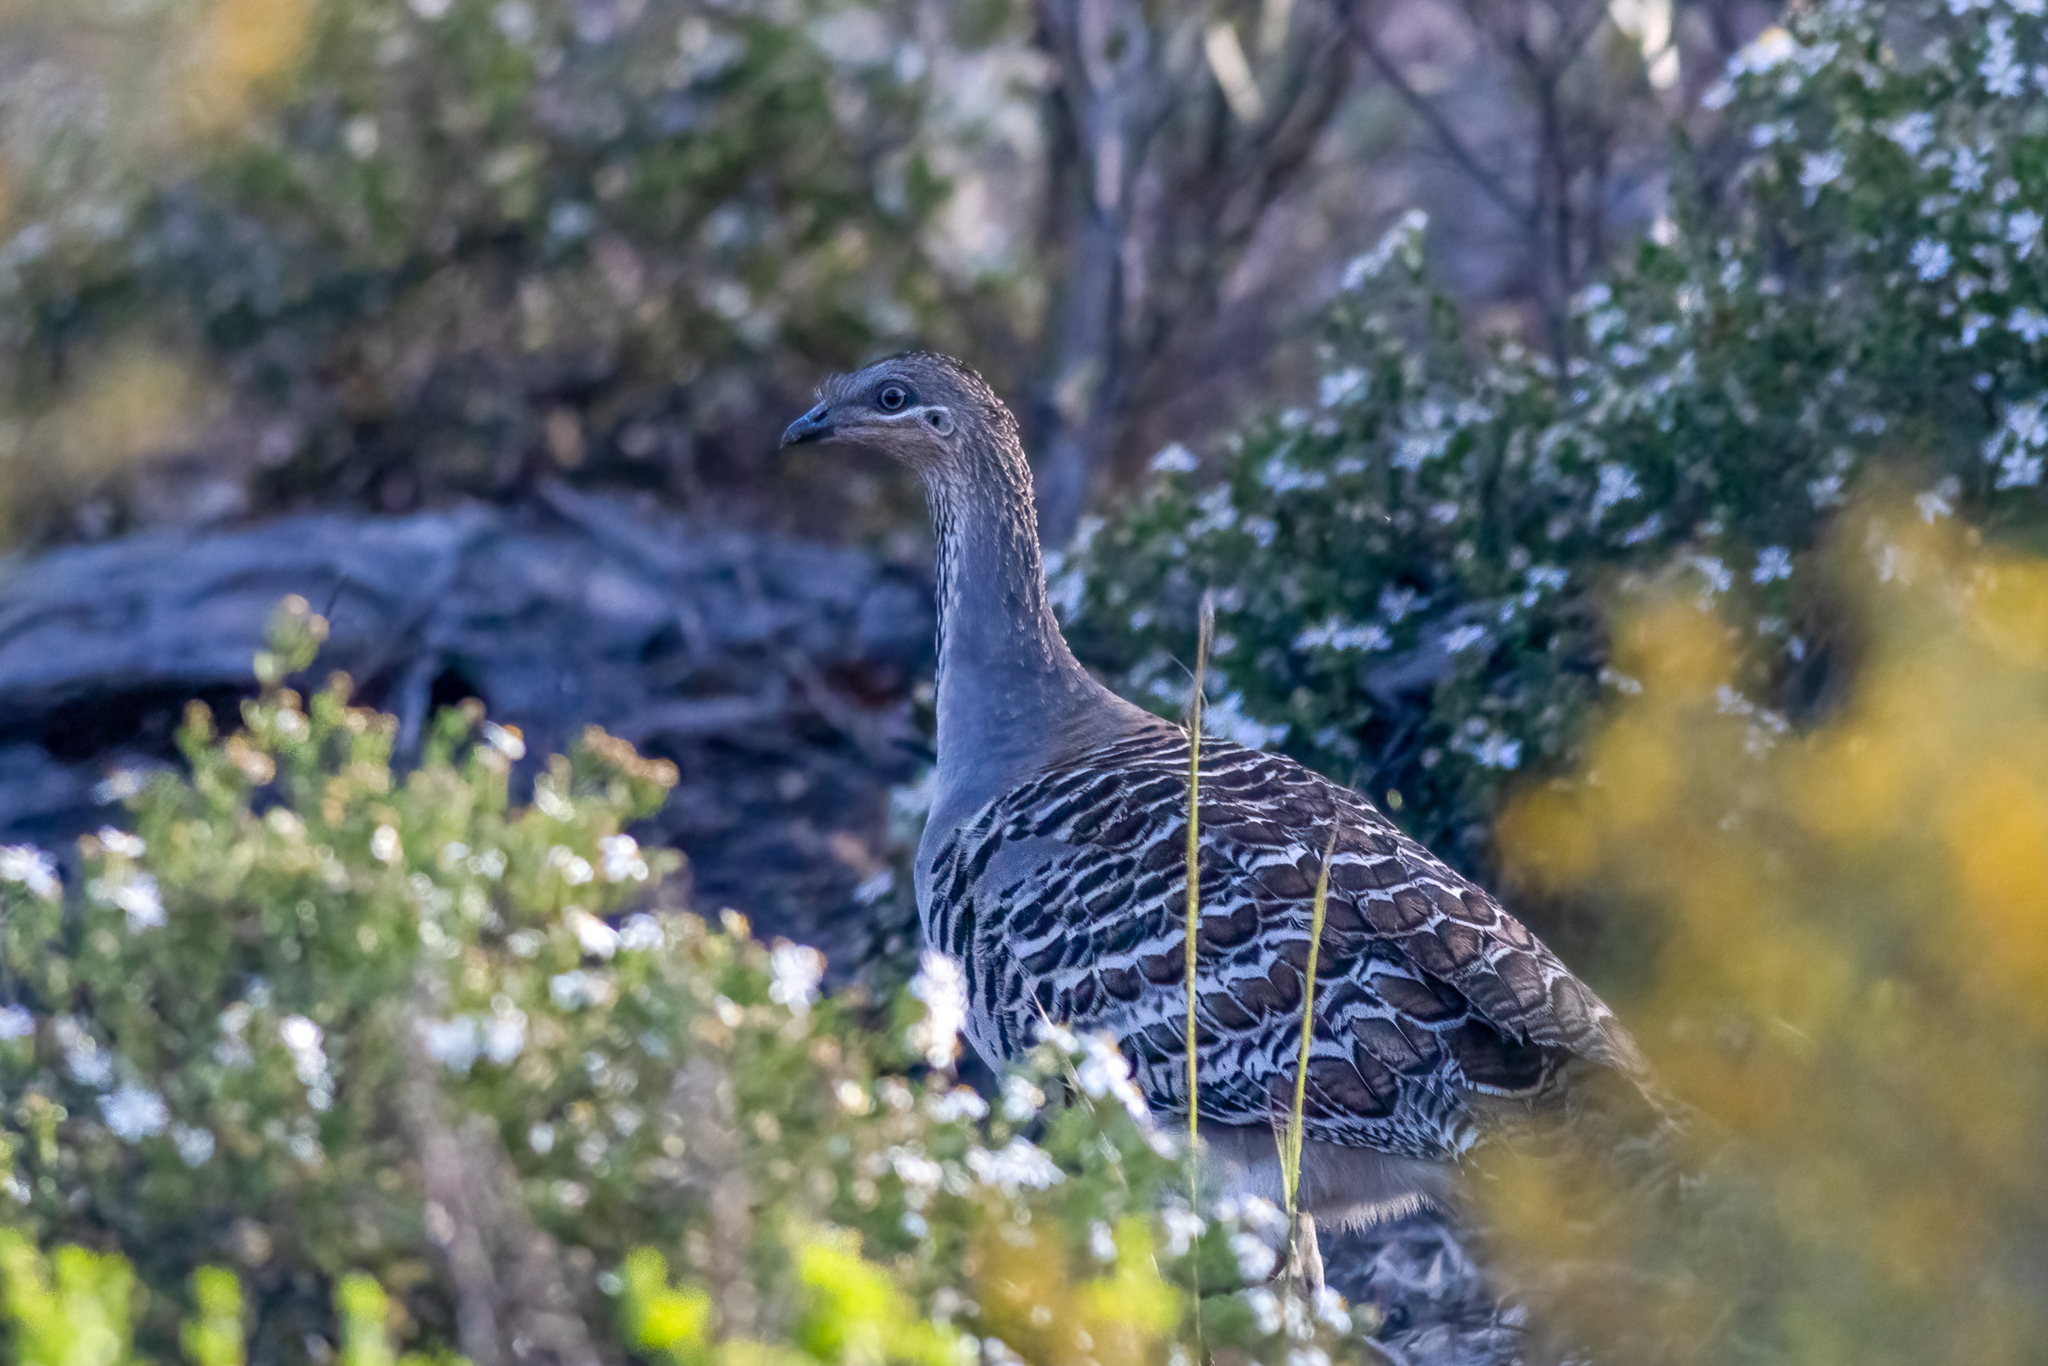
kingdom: Animalia
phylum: Chordata
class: Aves
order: Galliformes
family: Megapodiidae
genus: Leipoa
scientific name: Leipoa ocellata
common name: Malleefowl
